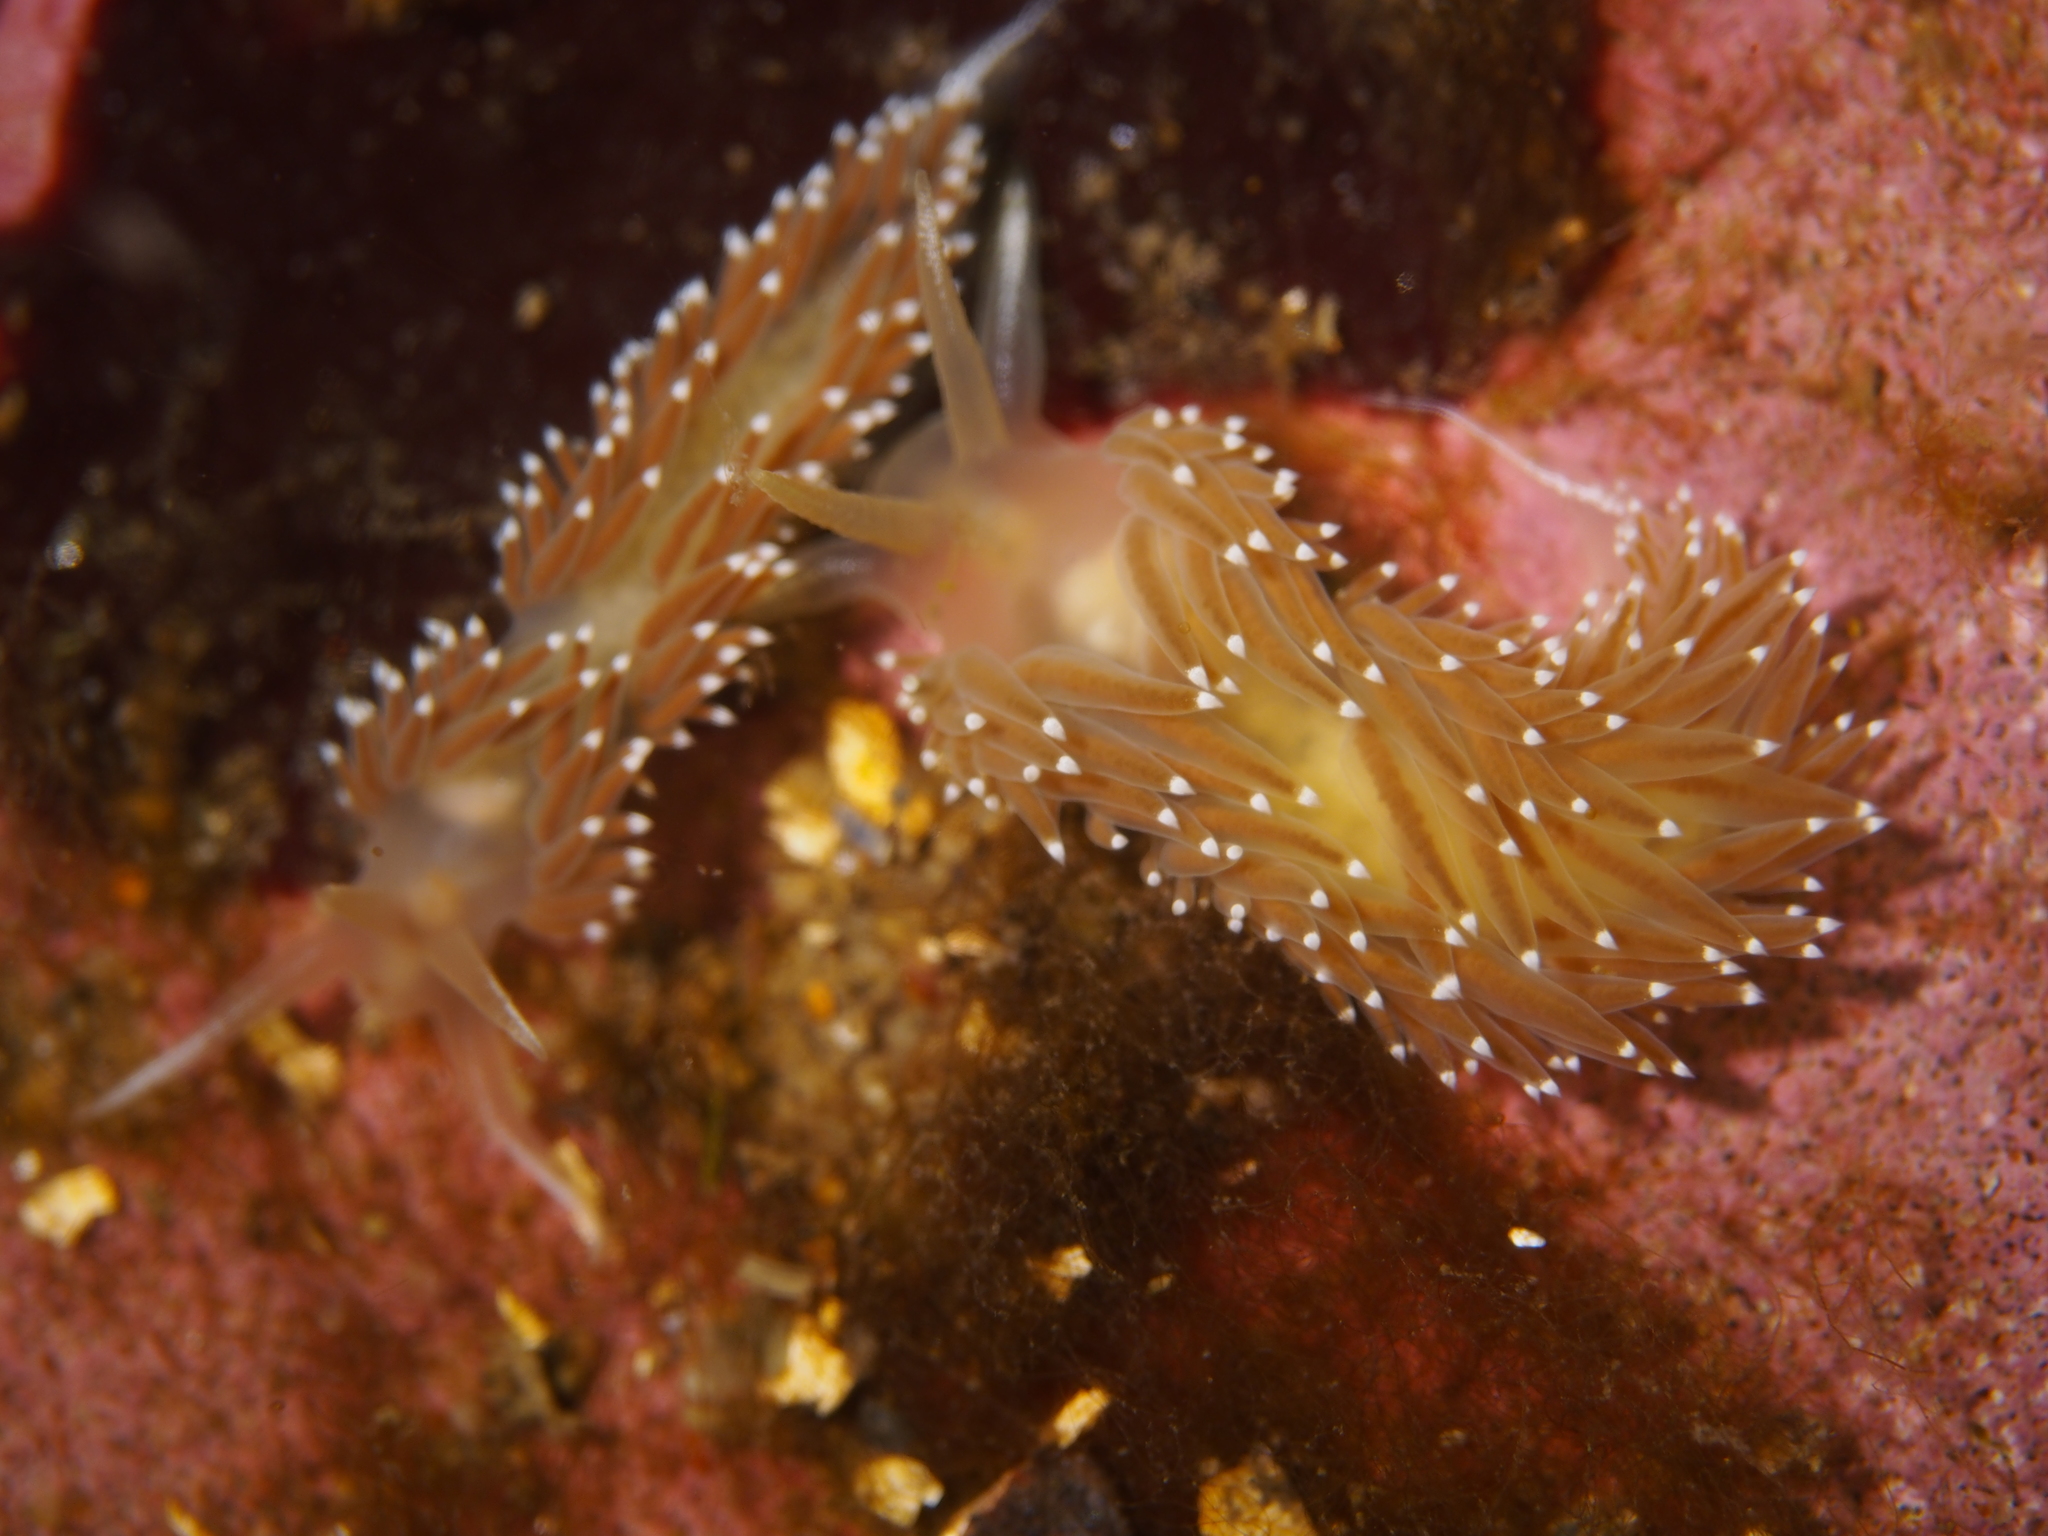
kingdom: Animalia
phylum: Mollusca
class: Gastropoda
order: Nudibranchia
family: Coryphellidae
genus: Coryphella
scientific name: Coryphella nobilis
